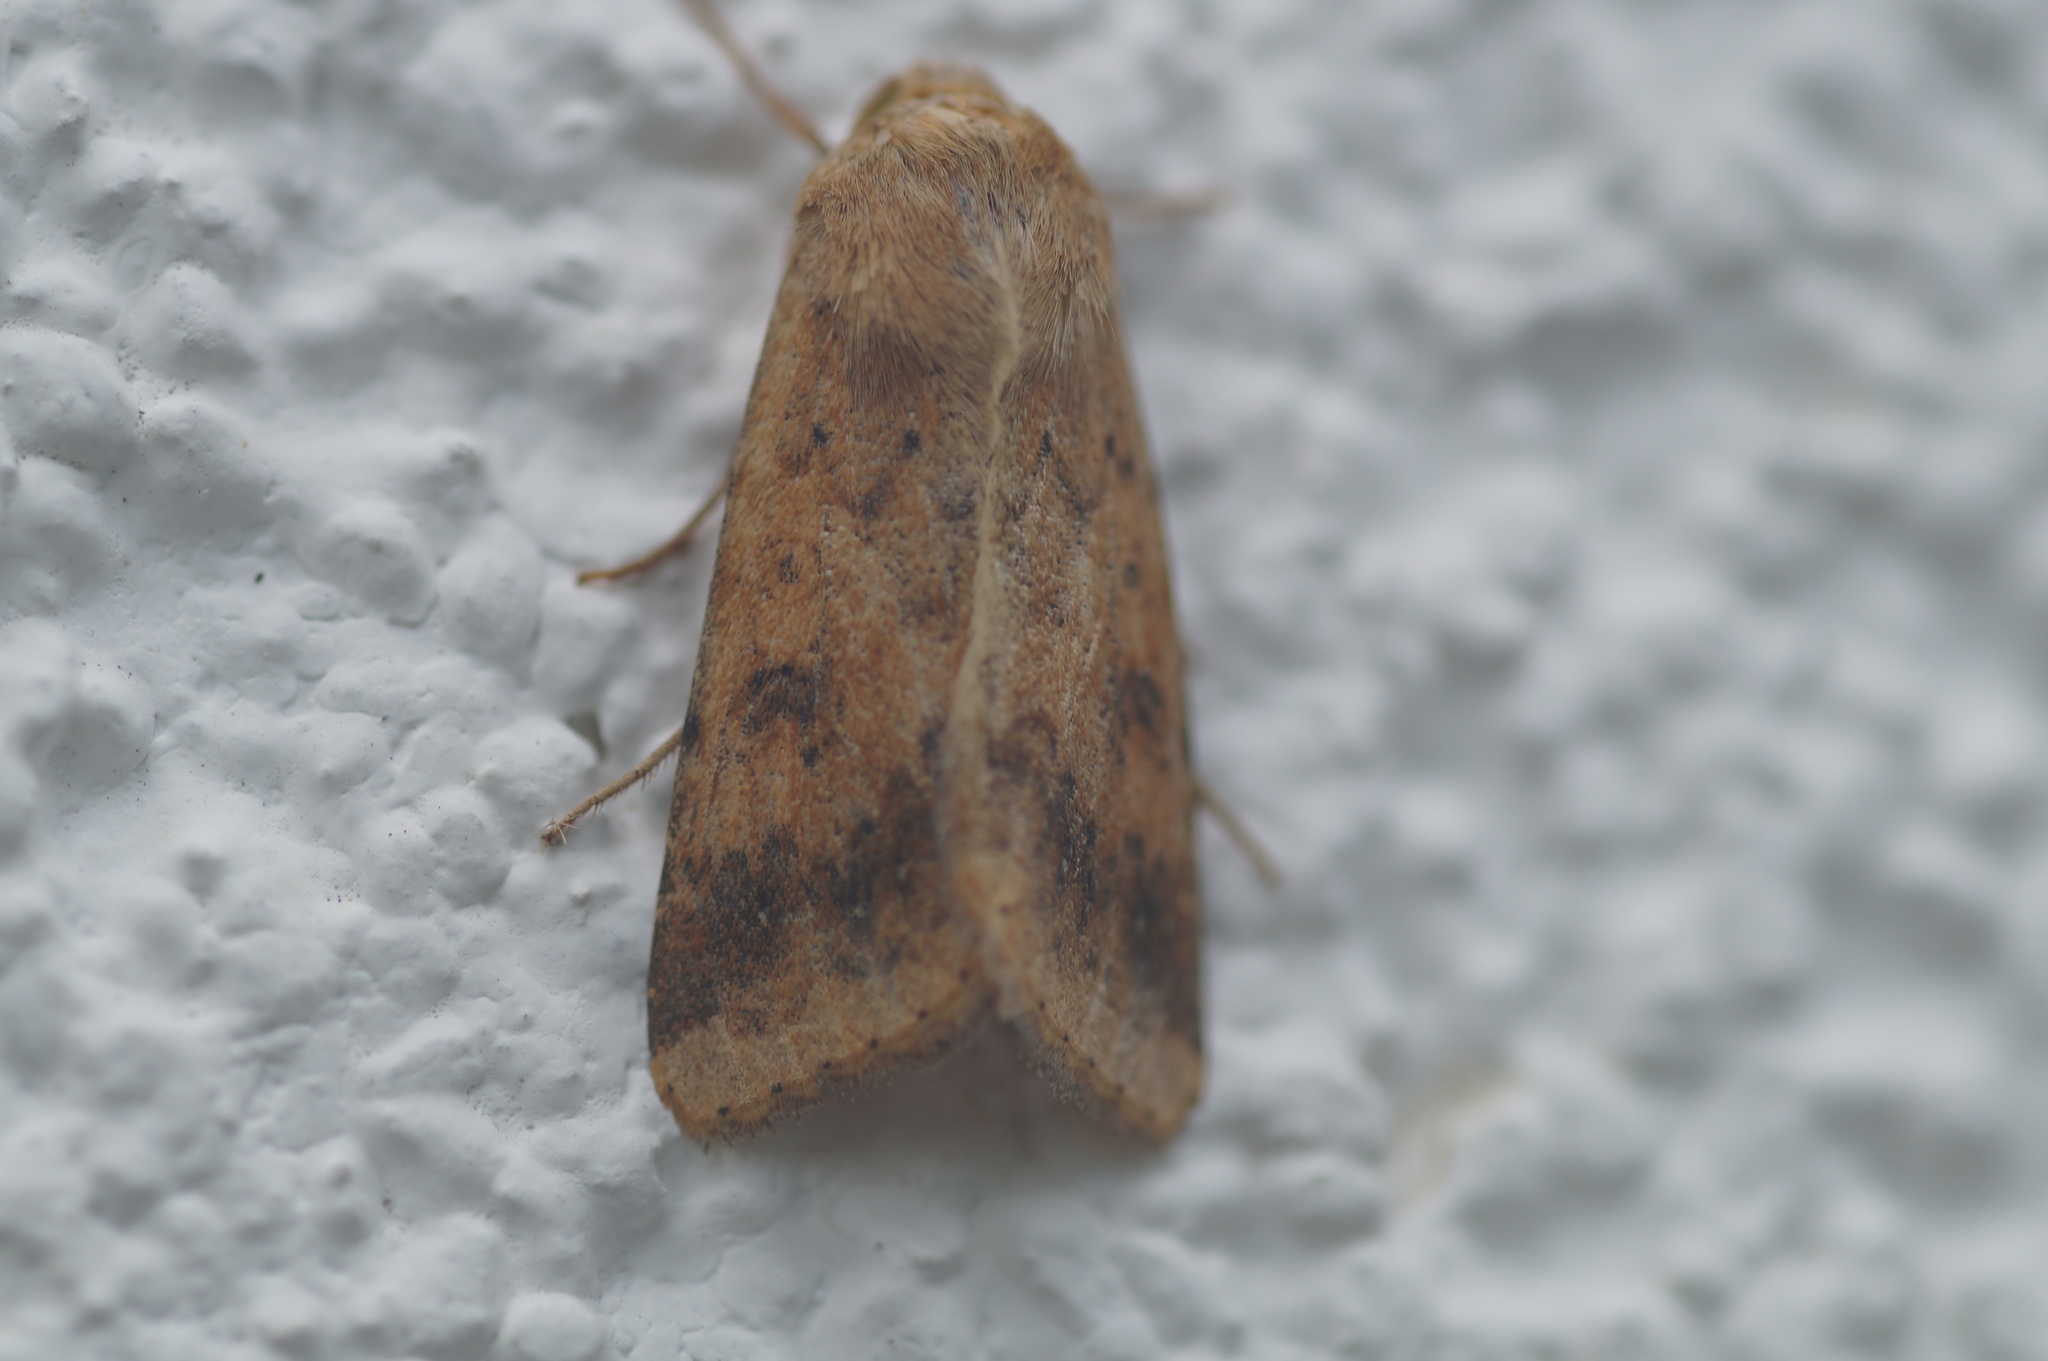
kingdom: Animalia
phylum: Arthropoda
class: Insecta
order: Lepidoptera
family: Noctuidae
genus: Helicoverpa
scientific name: Helicoverpa armigera
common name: Cotton bollworm
